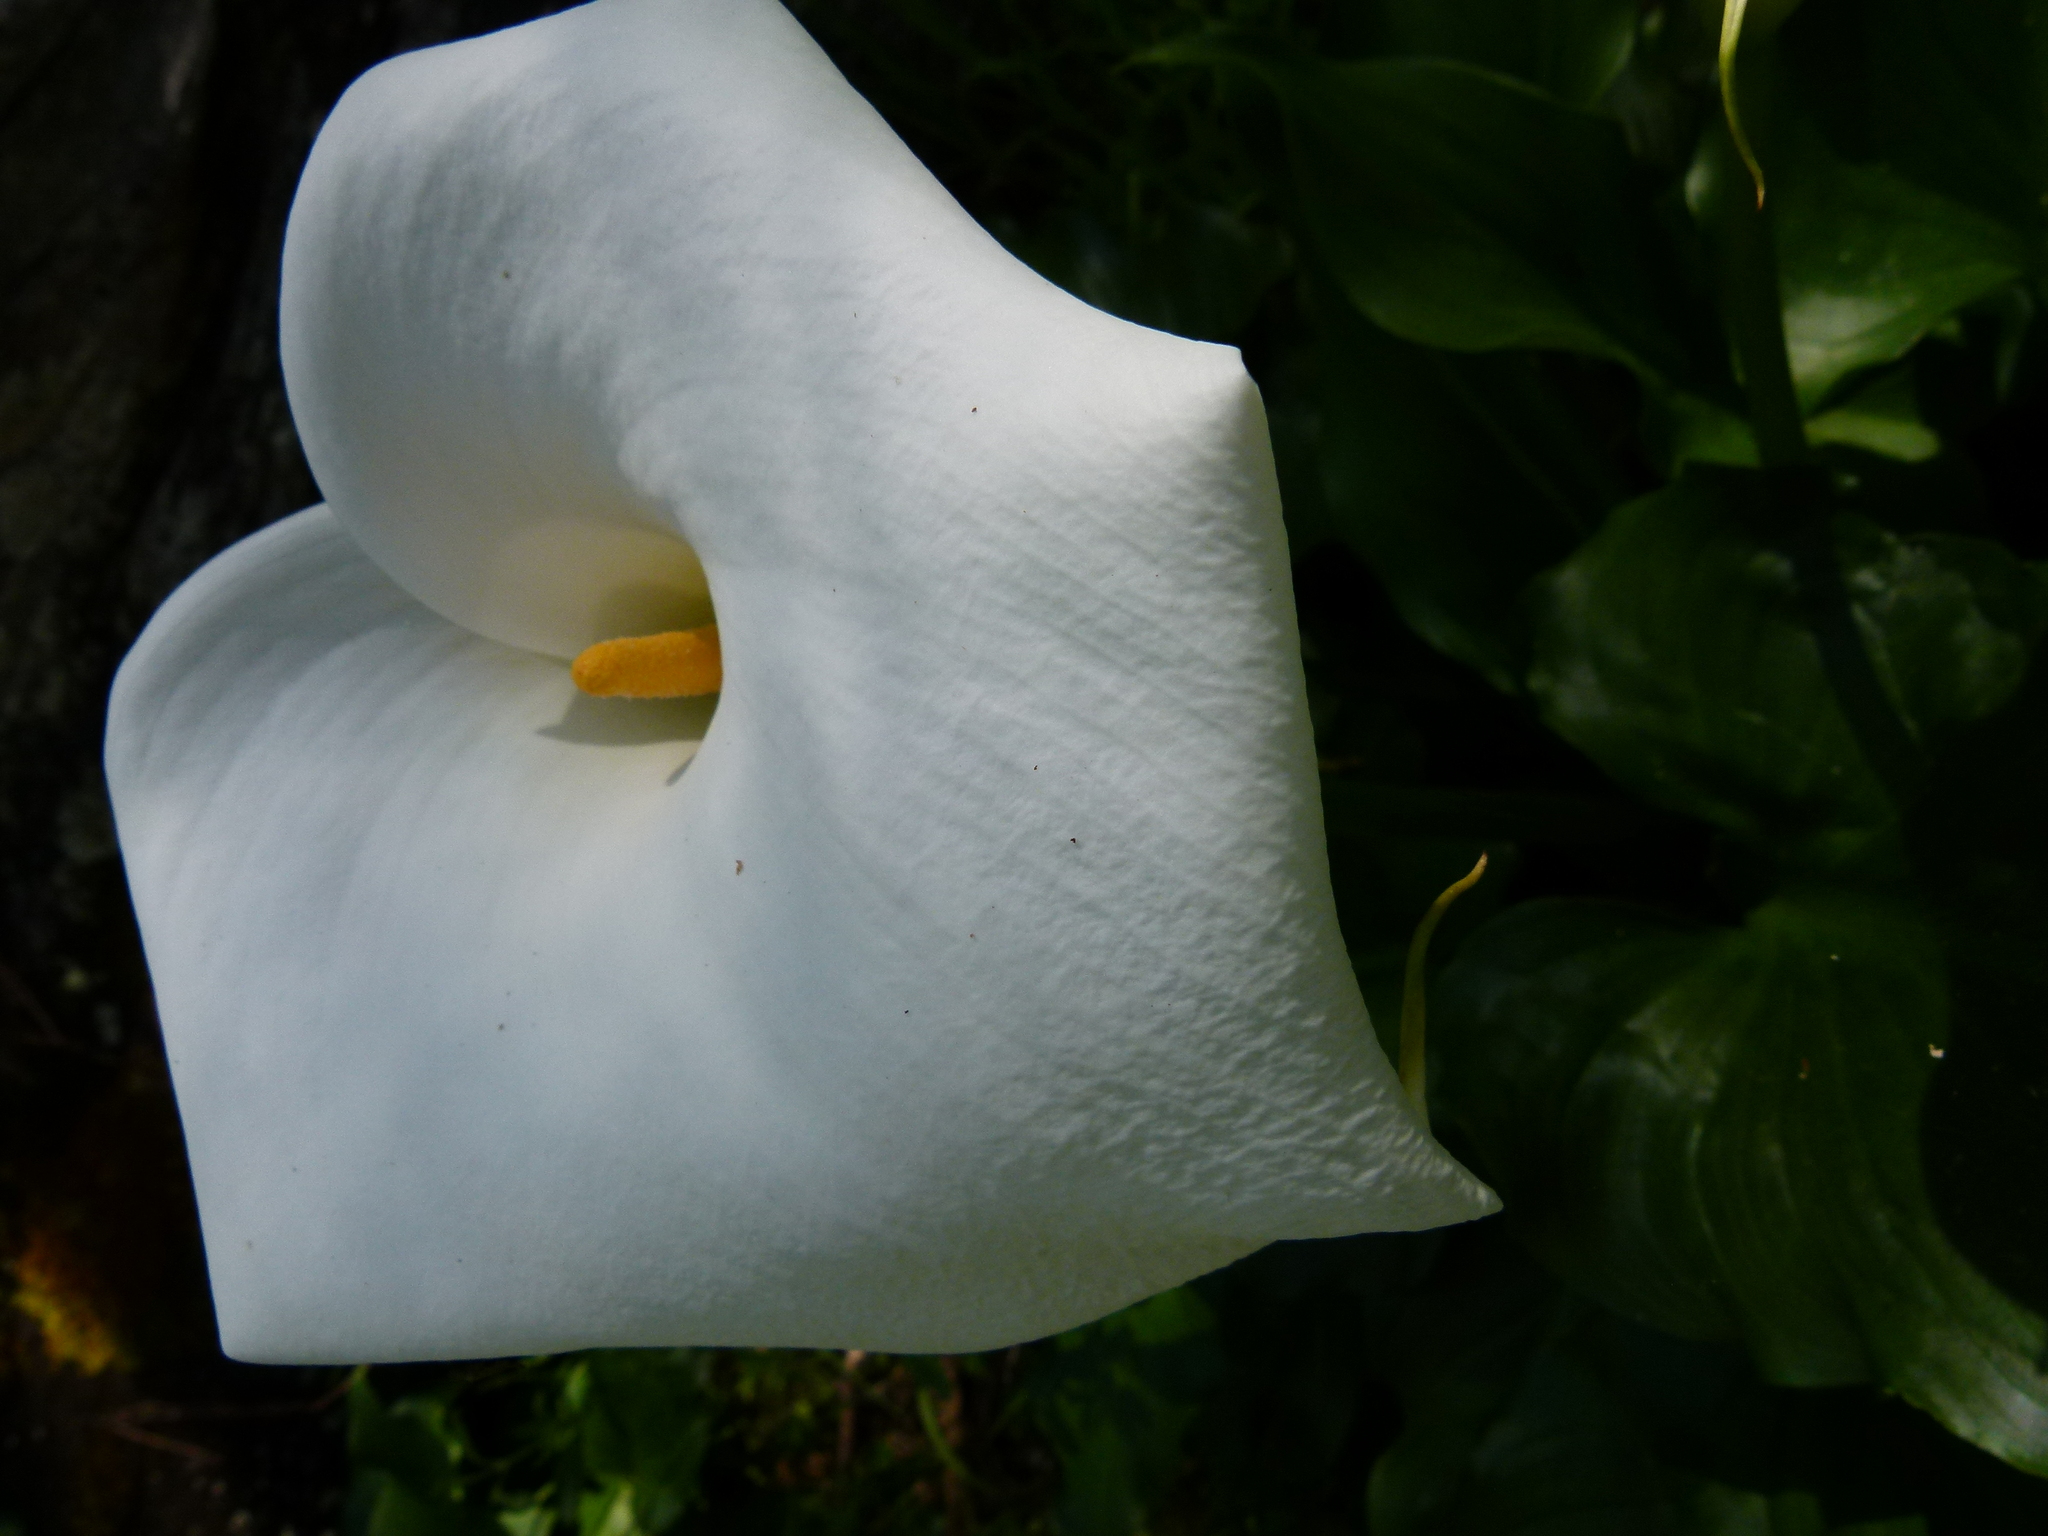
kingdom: Plantae
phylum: Tracheophyta
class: Liliopsida
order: Alismatales
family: Araceae
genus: Zantedeschia
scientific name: Zantedeschia aethiopica
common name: Altar-lily
